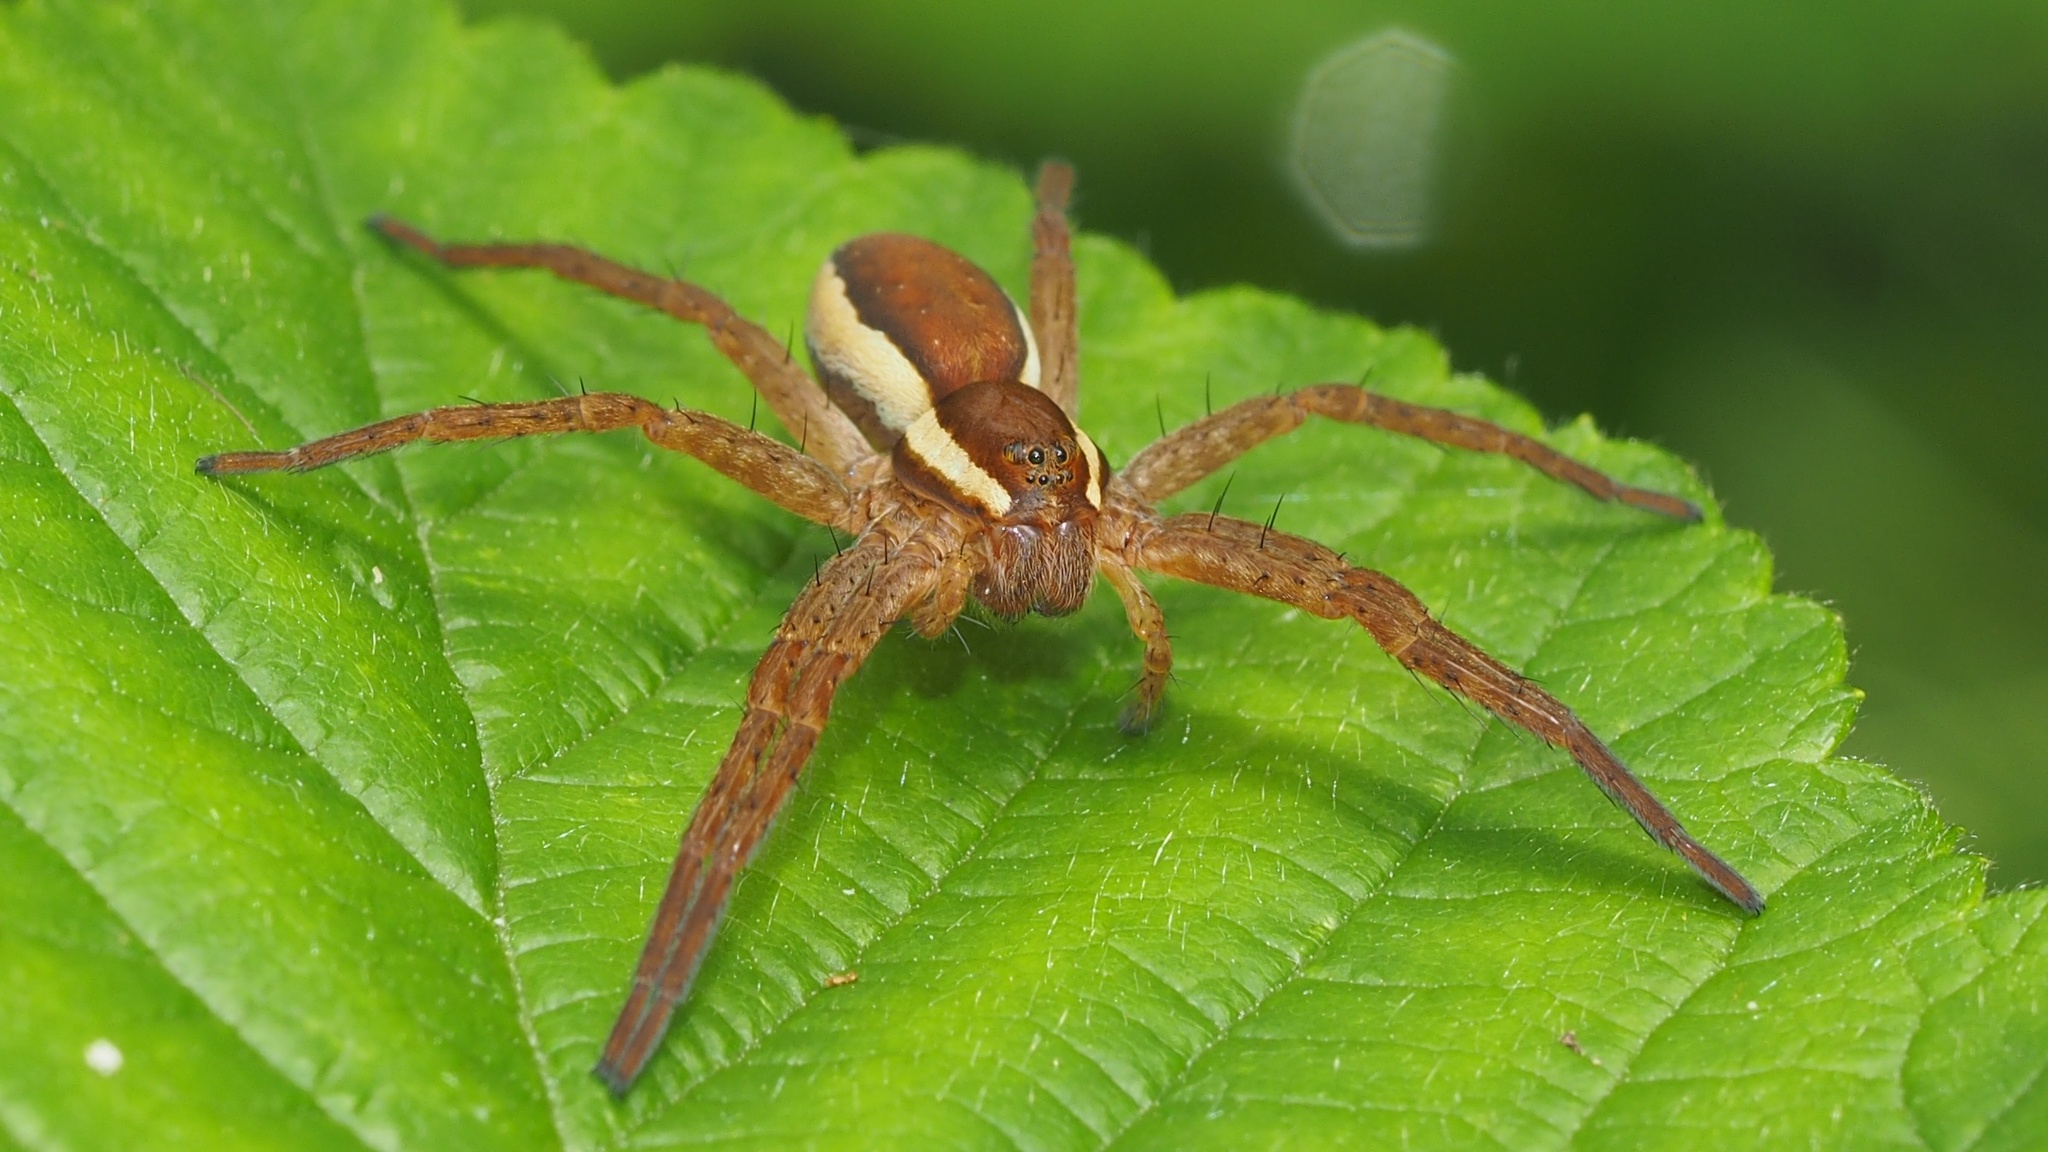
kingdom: Animalia
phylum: Arthropoda
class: Arachnida
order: Araneae
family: Pisauridae
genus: Dolomedes
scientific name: Dolomedes fimbriatus
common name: Raft spider
